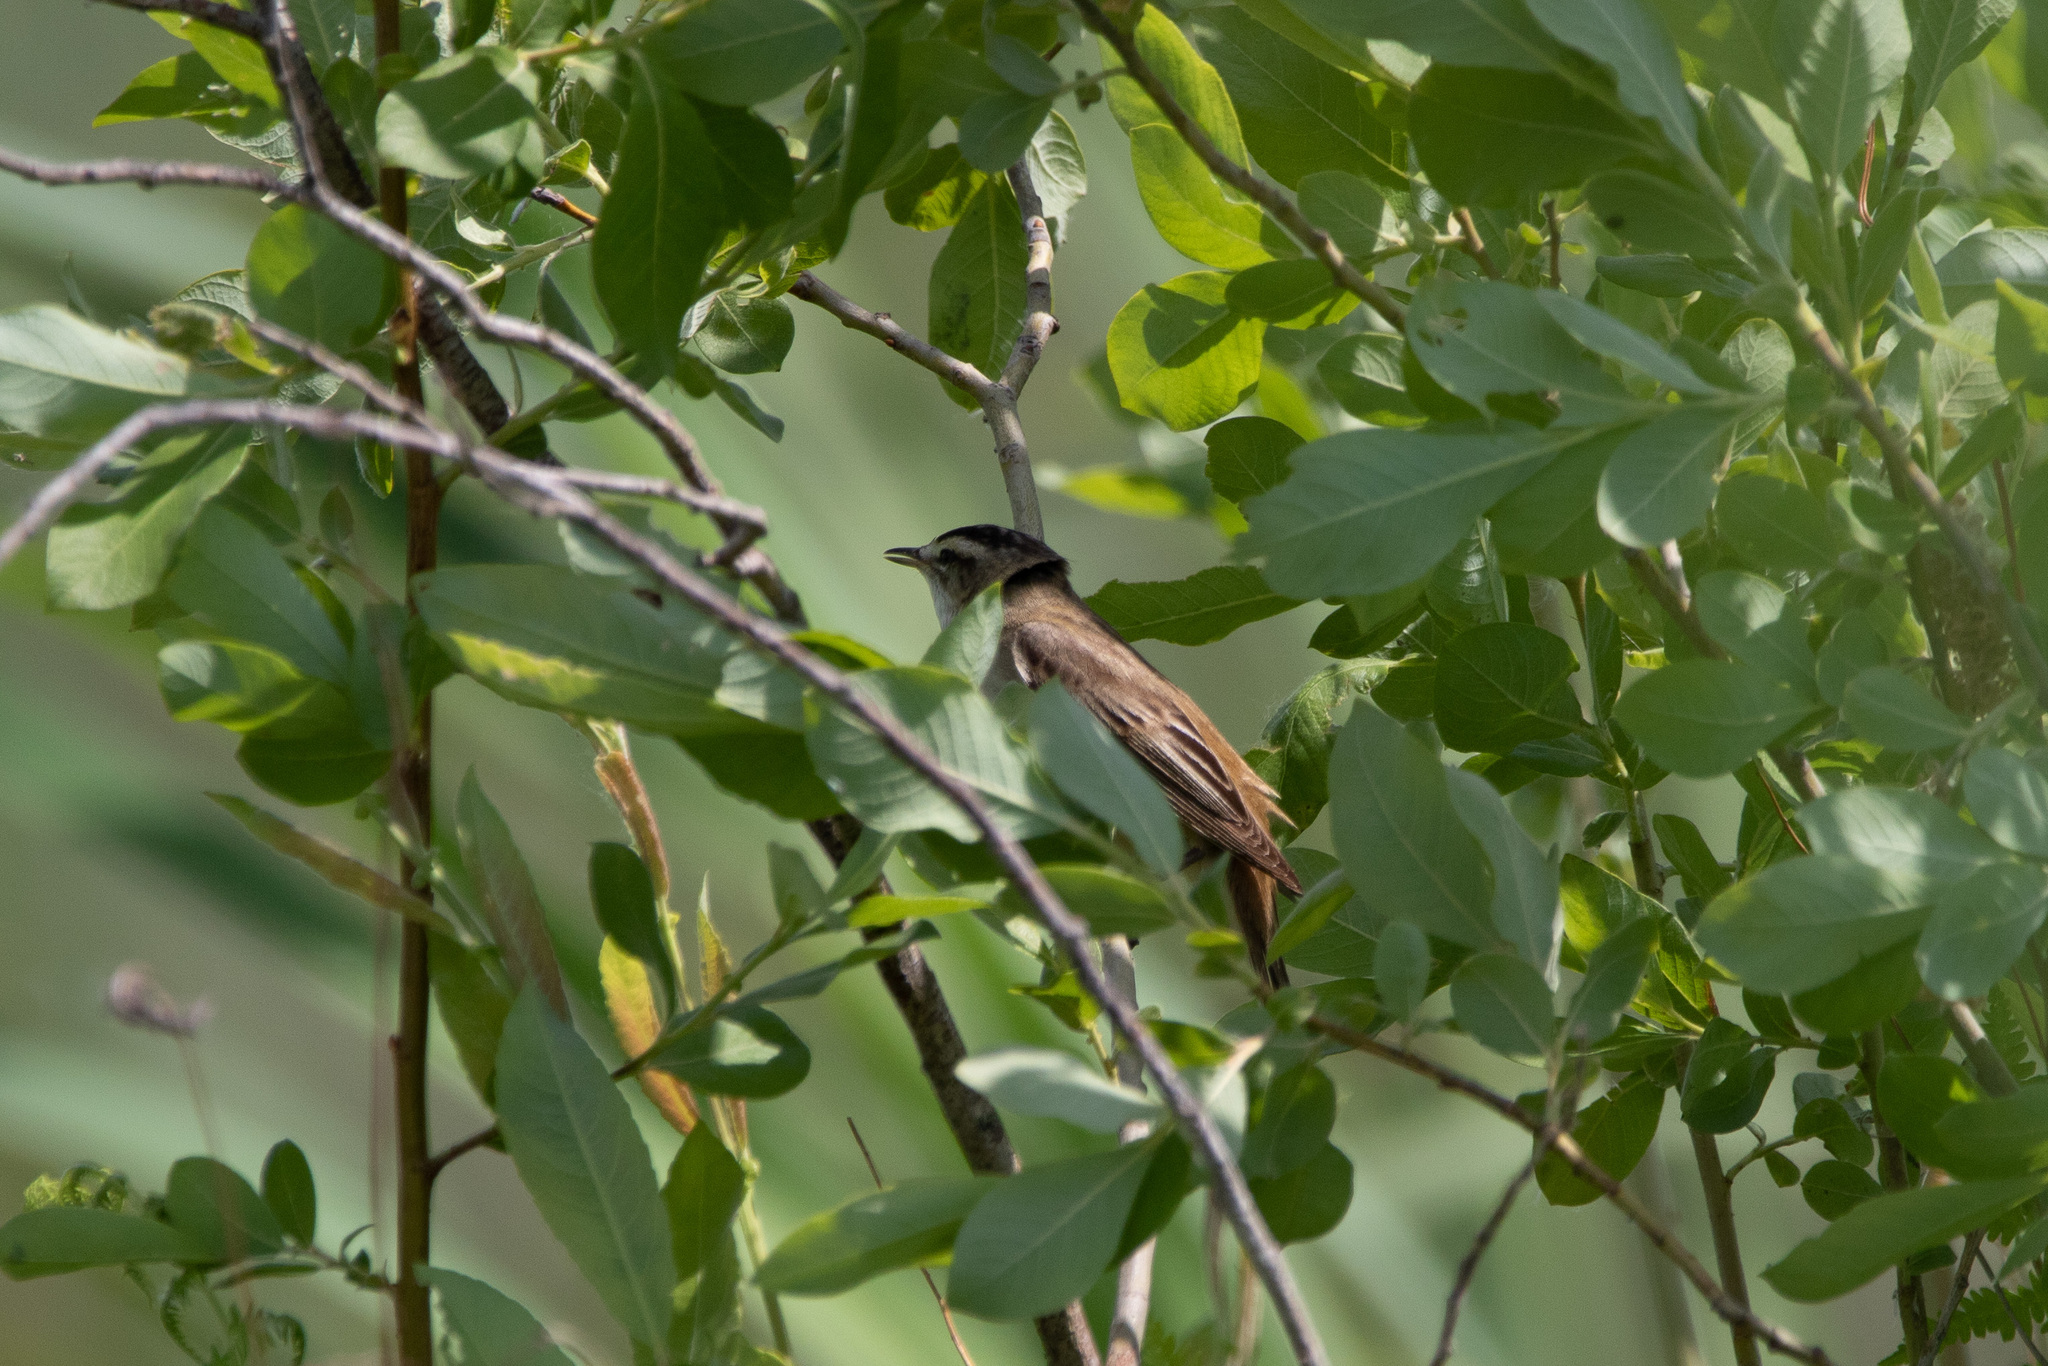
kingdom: Animalia
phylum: Chordata
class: Aves
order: Passeriformes
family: Acrocephalidae
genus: Acrocephalus
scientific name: Acrocephalus schoenobaenus
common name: Sedge warbler
